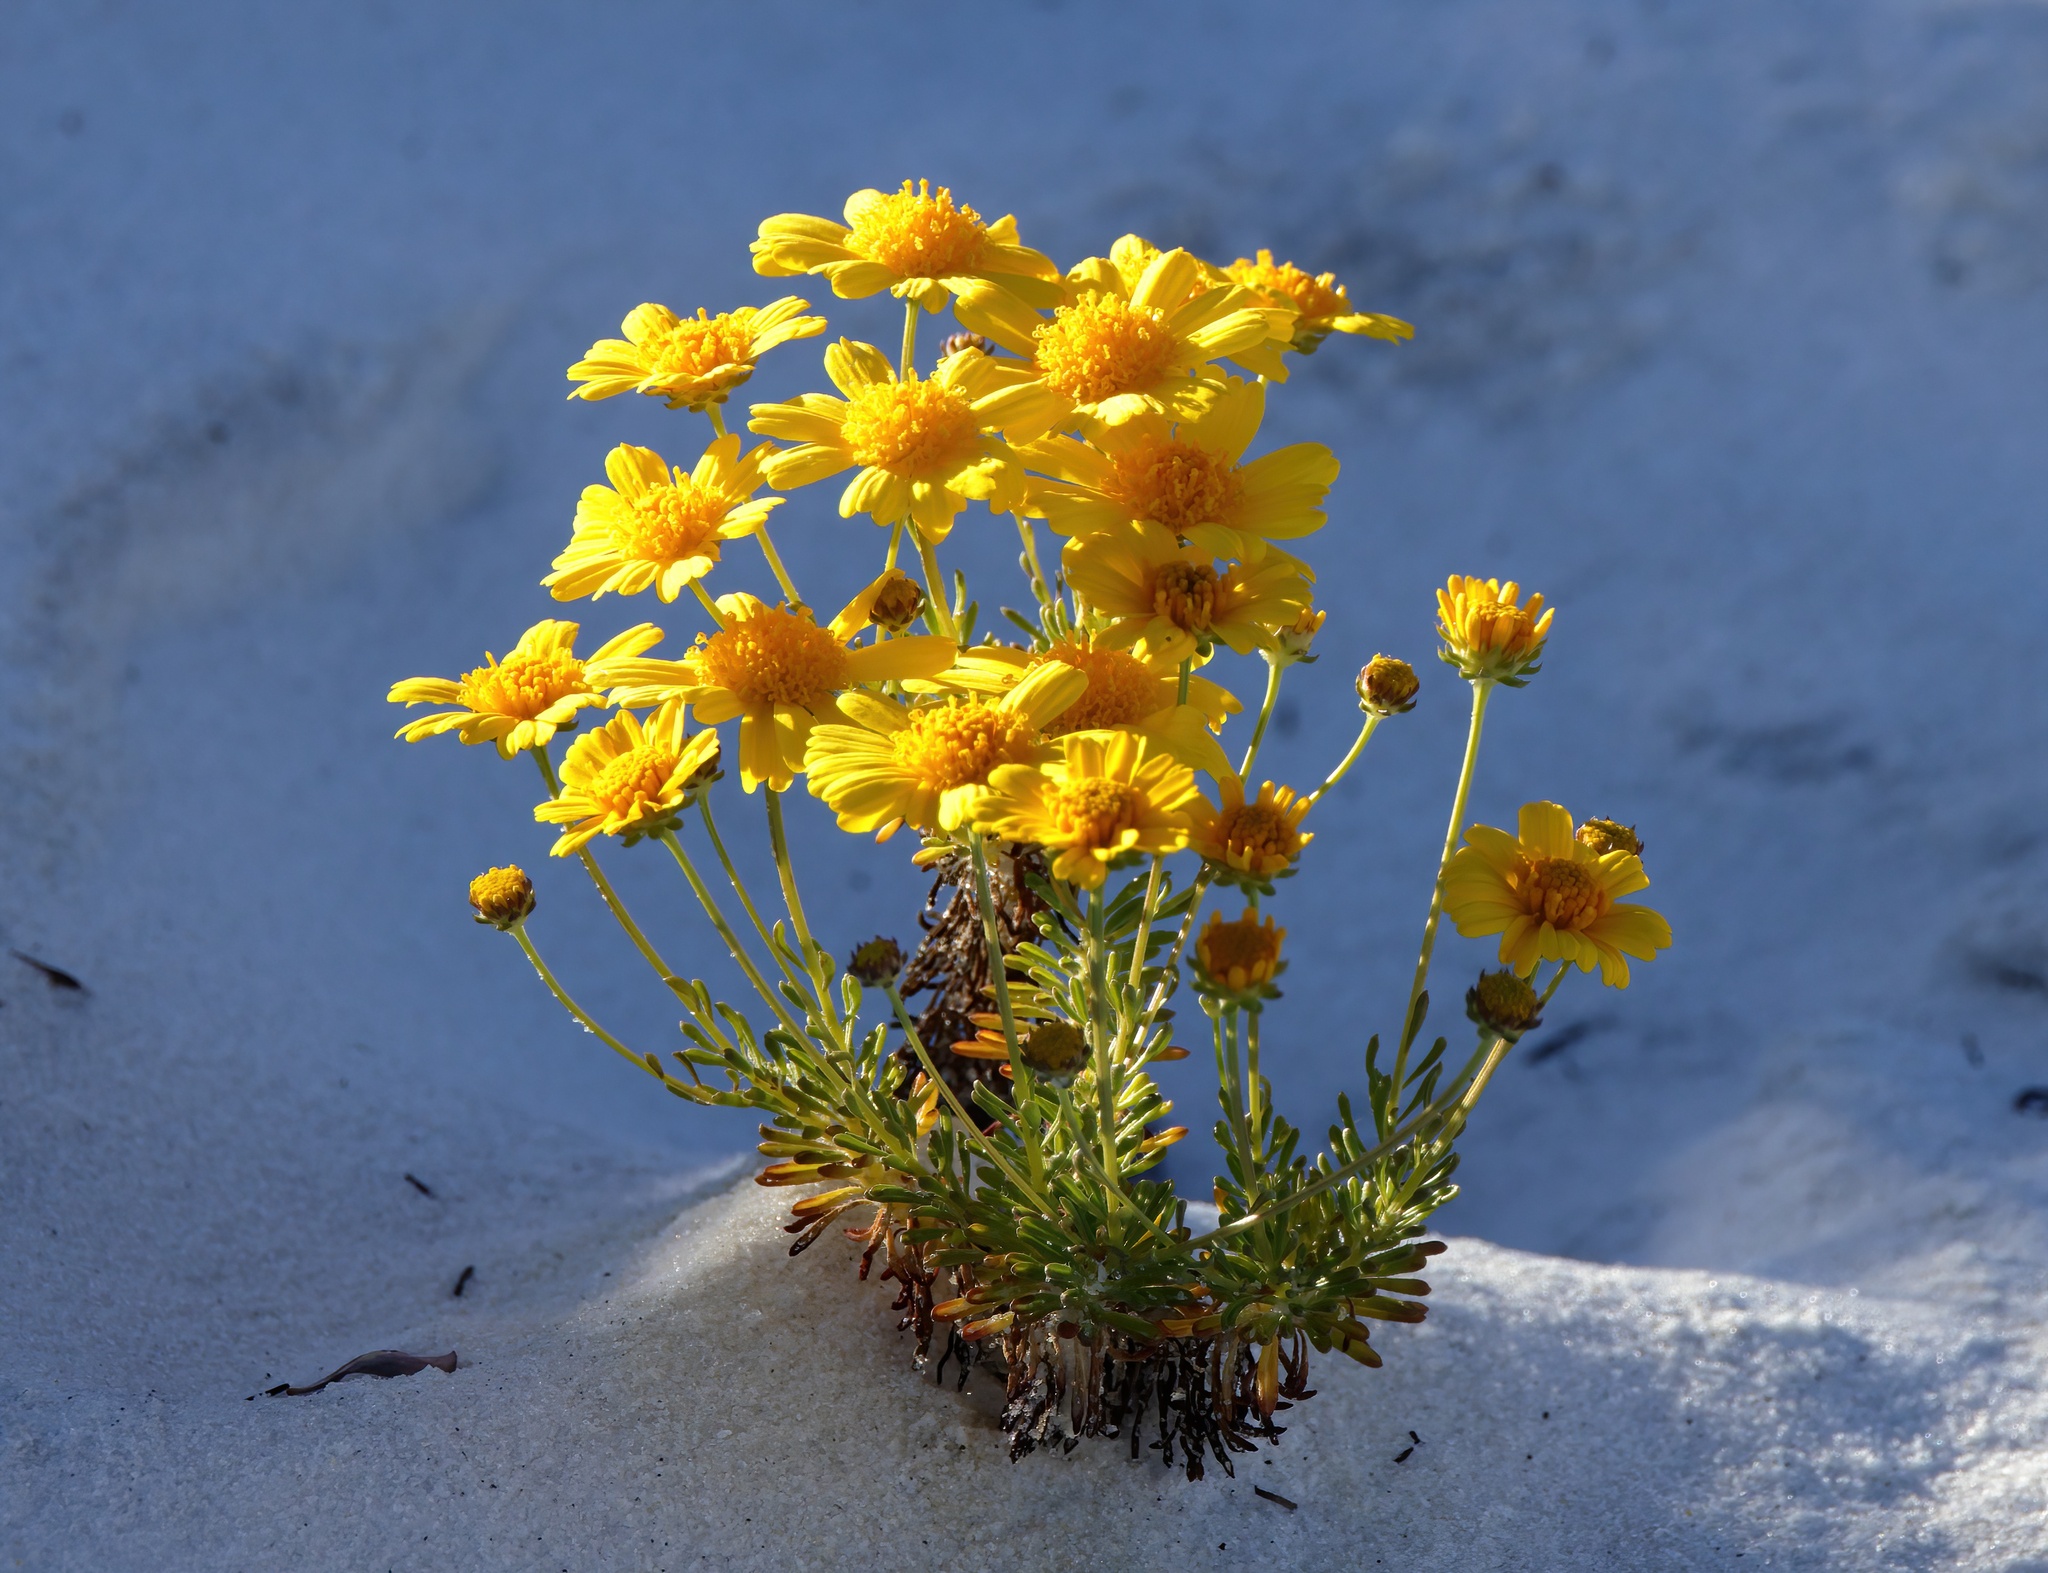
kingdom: Plantae
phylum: Tracheophyta
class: Magnoliopsida
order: Asterales
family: Asteraceae
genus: Balduina
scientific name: Balduina angustifolia
